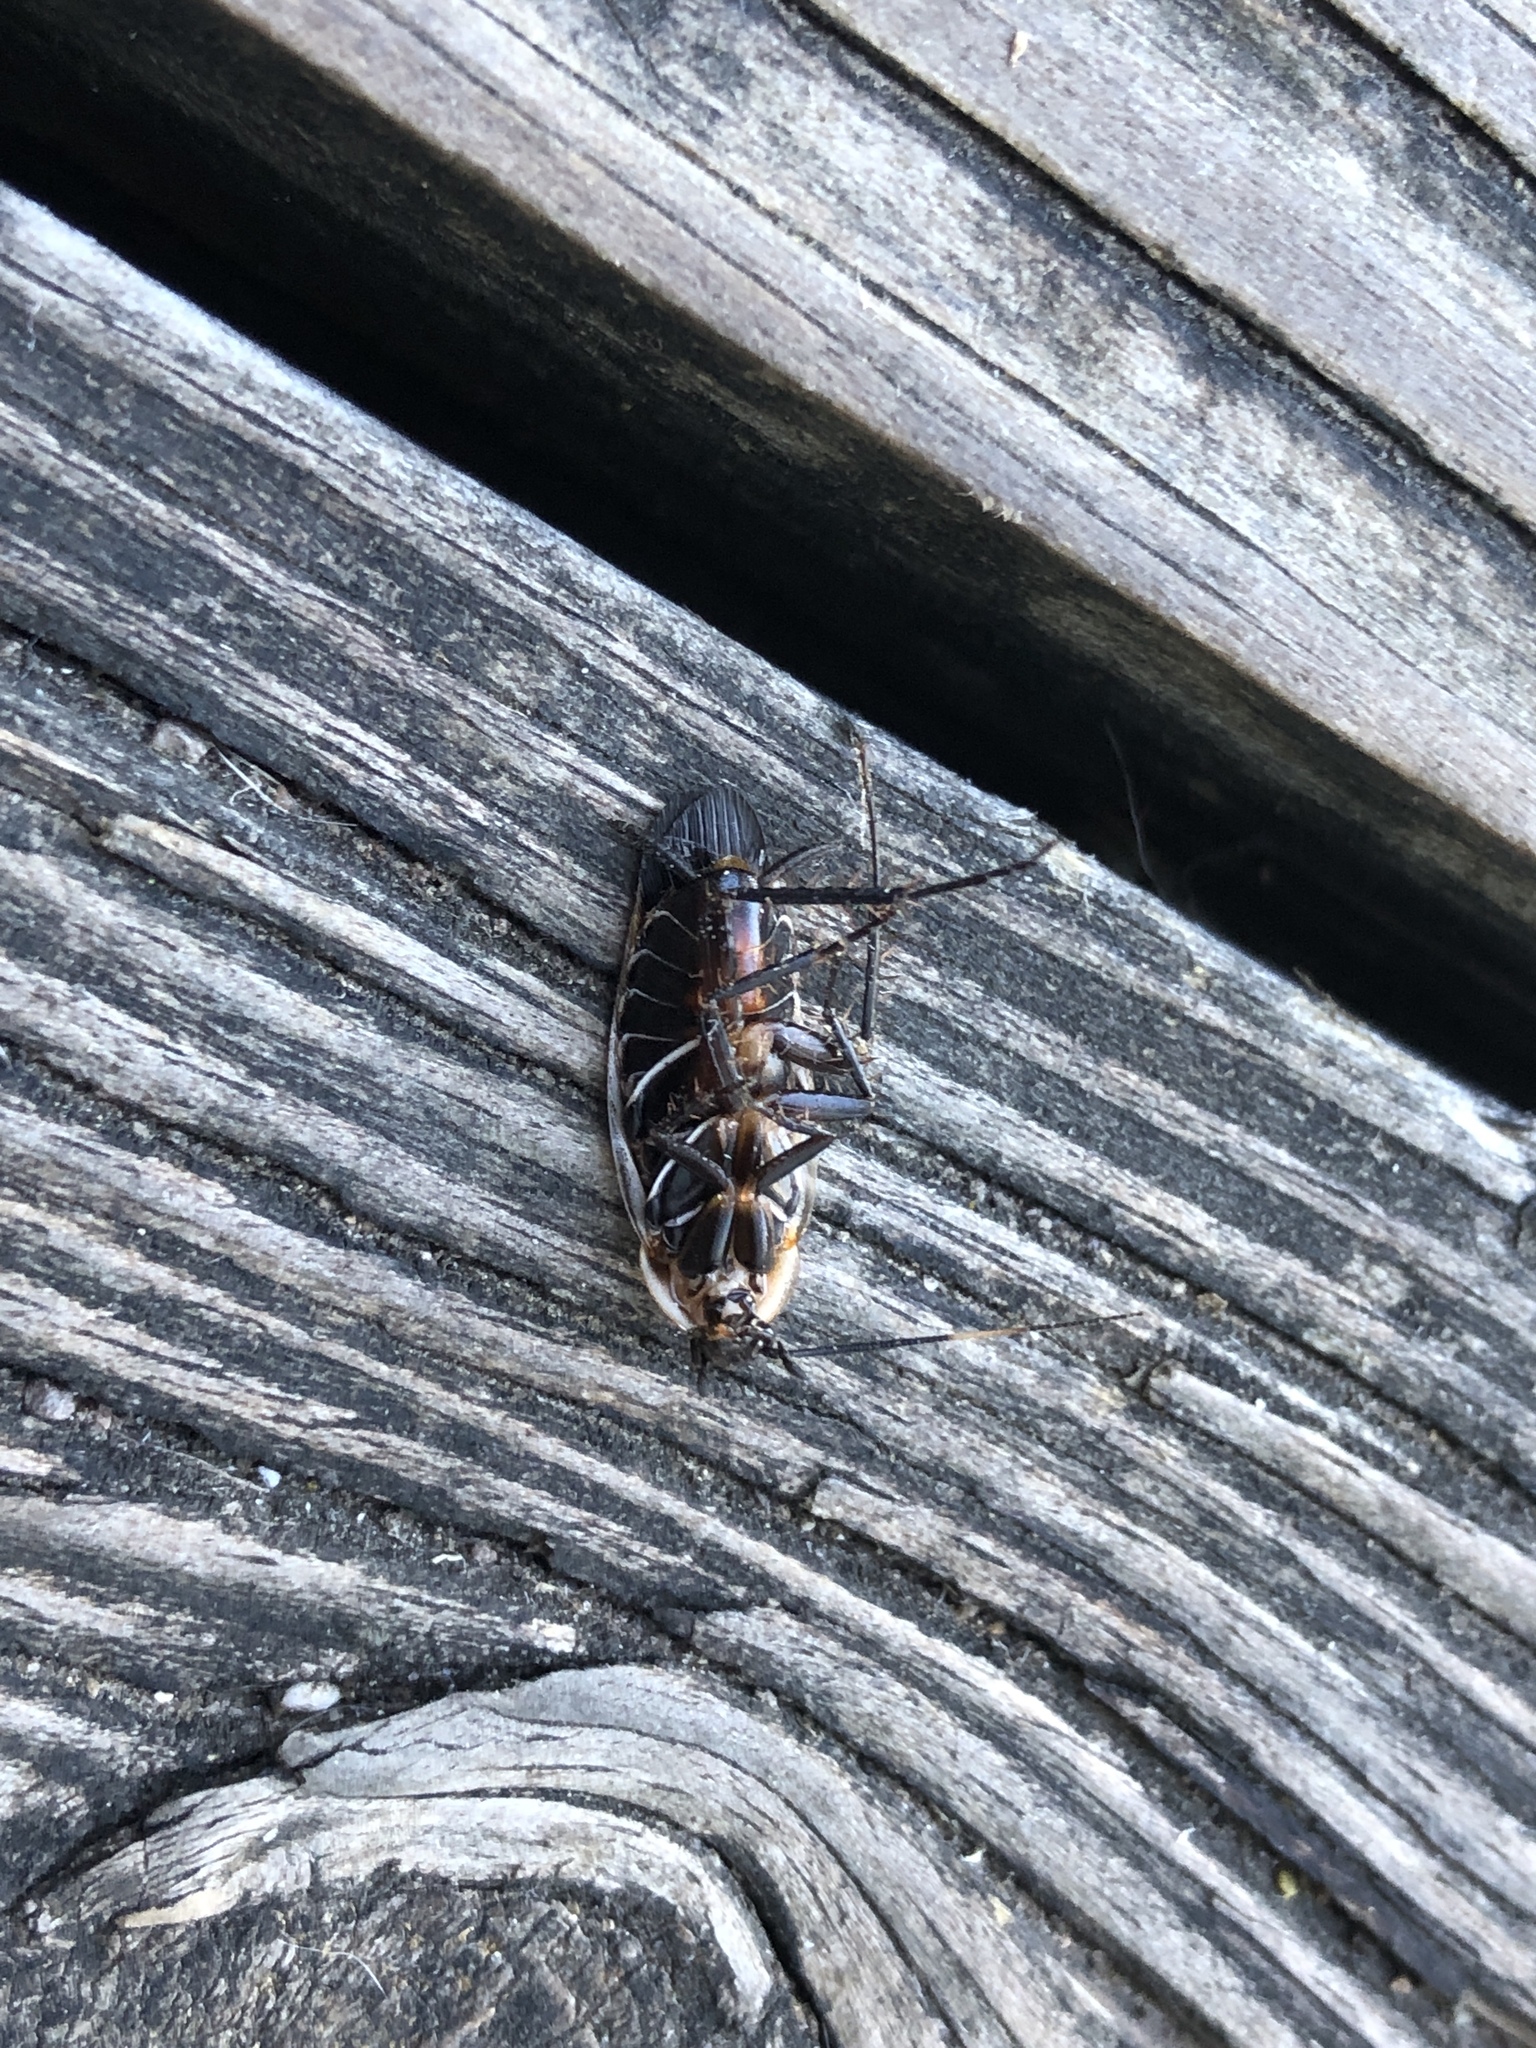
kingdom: Animalia
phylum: Arthropoda
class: Insecta
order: Blattodea
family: Ectobiidae
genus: Pseudomops
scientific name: Pseudomops septentrionalis
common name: Pale-bordered field cockroach
